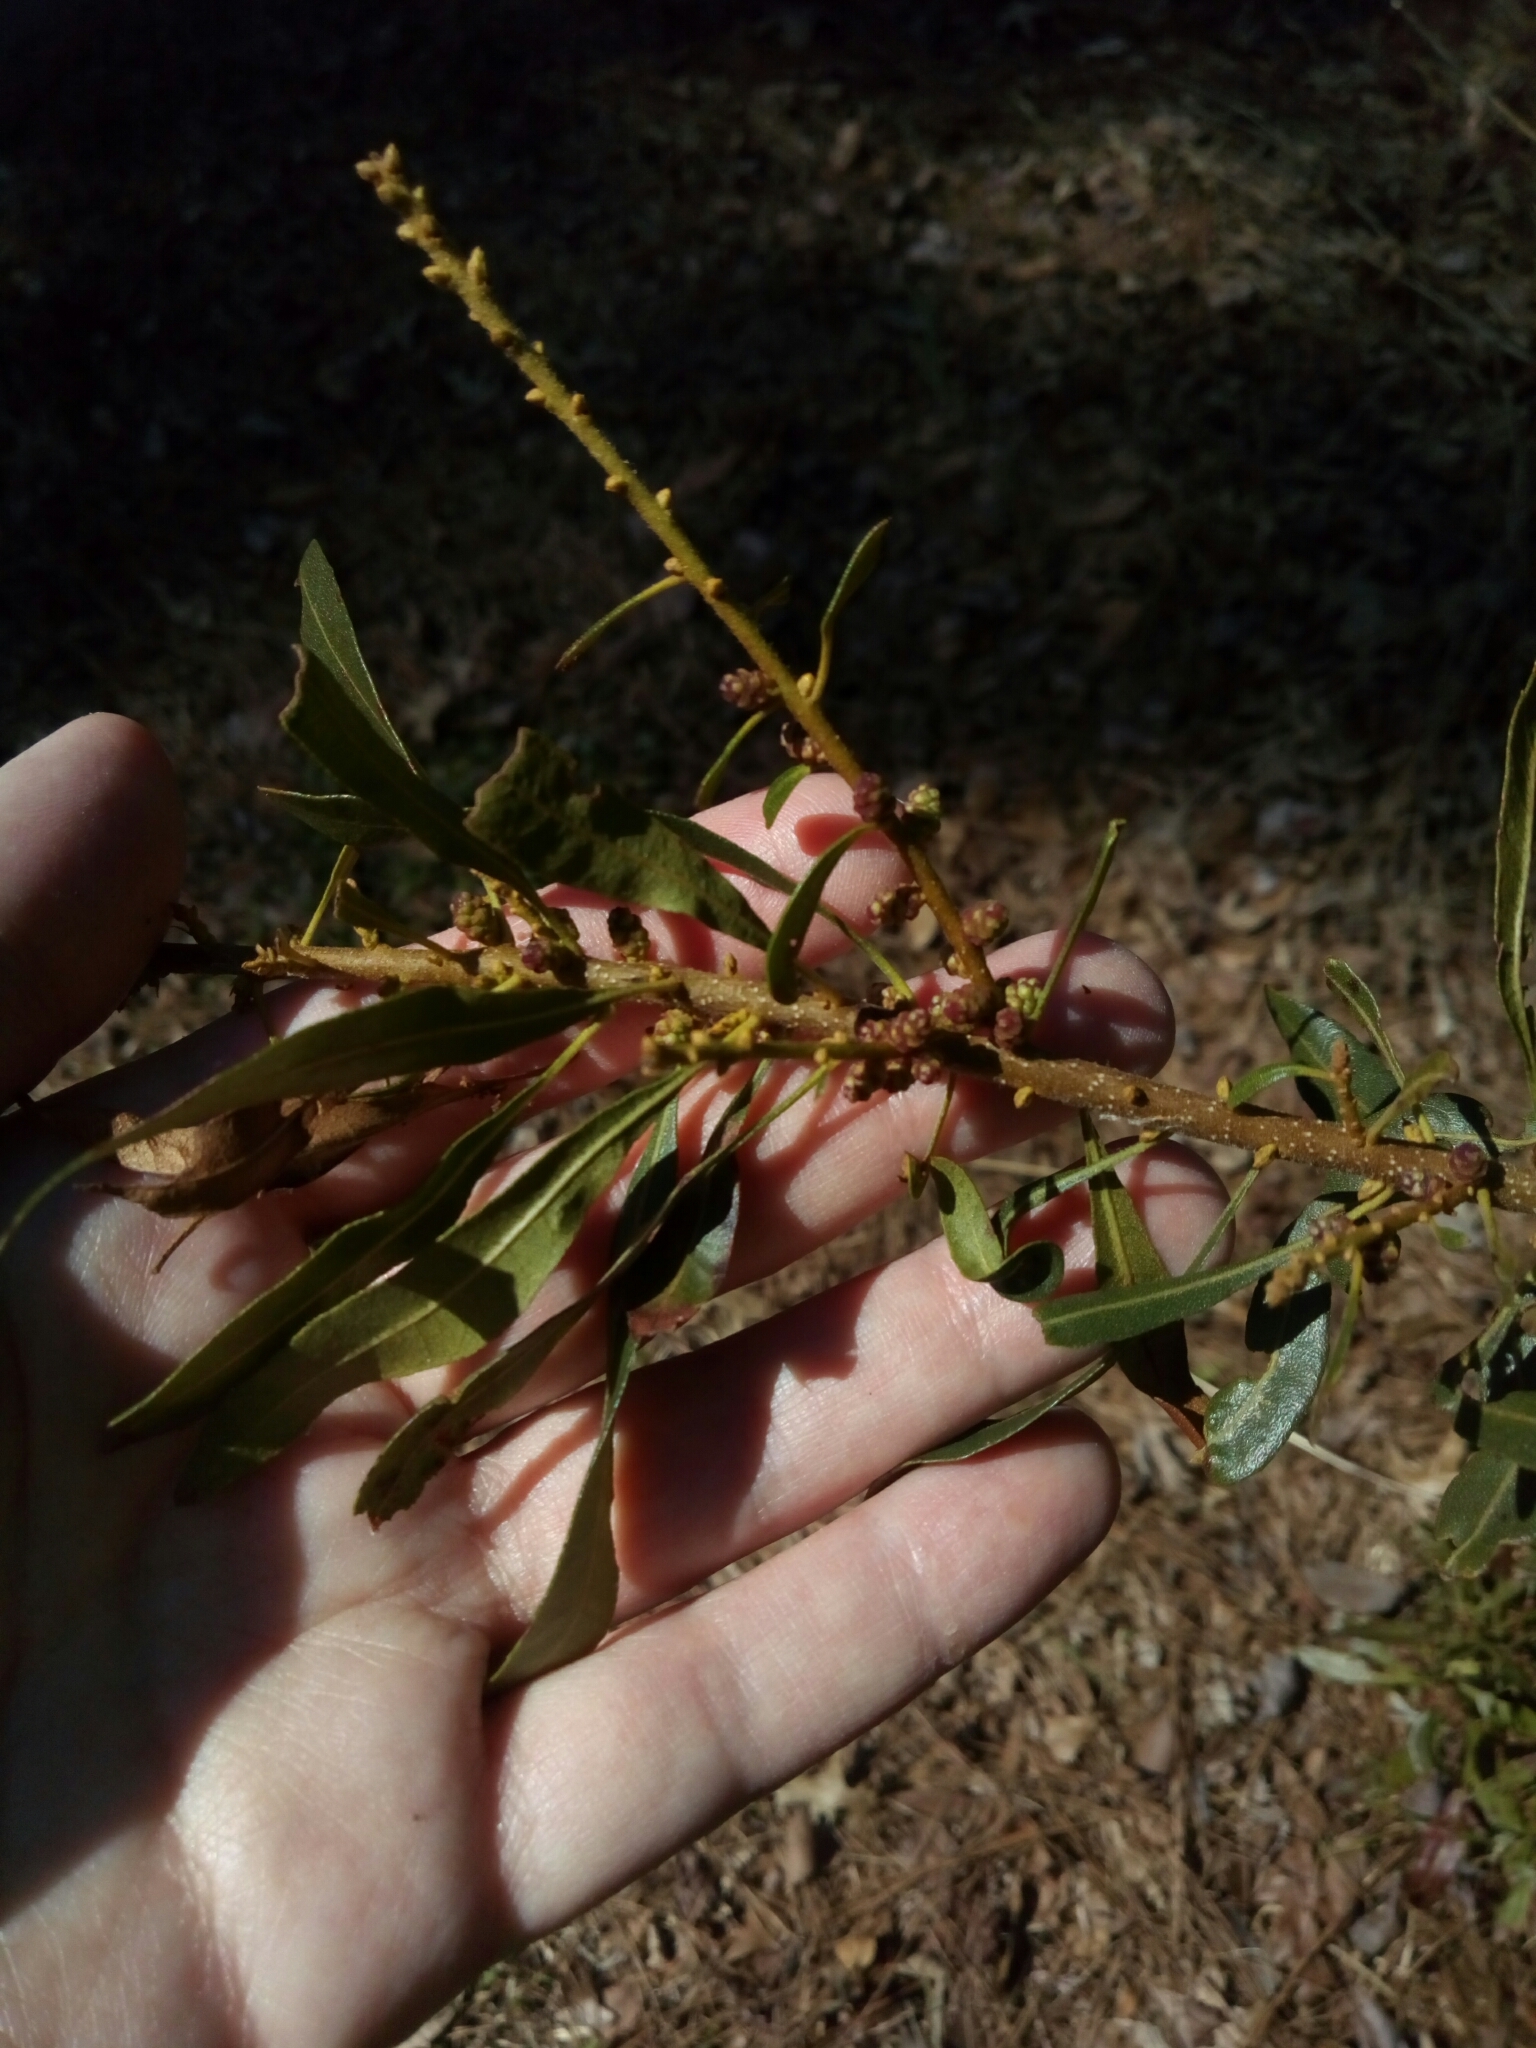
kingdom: Plantae
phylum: Tracheophyta
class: Magnoliopsida
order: Fagales
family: Myricaceae
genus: Morella
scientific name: Morella cerifera
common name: Wax myrtle
